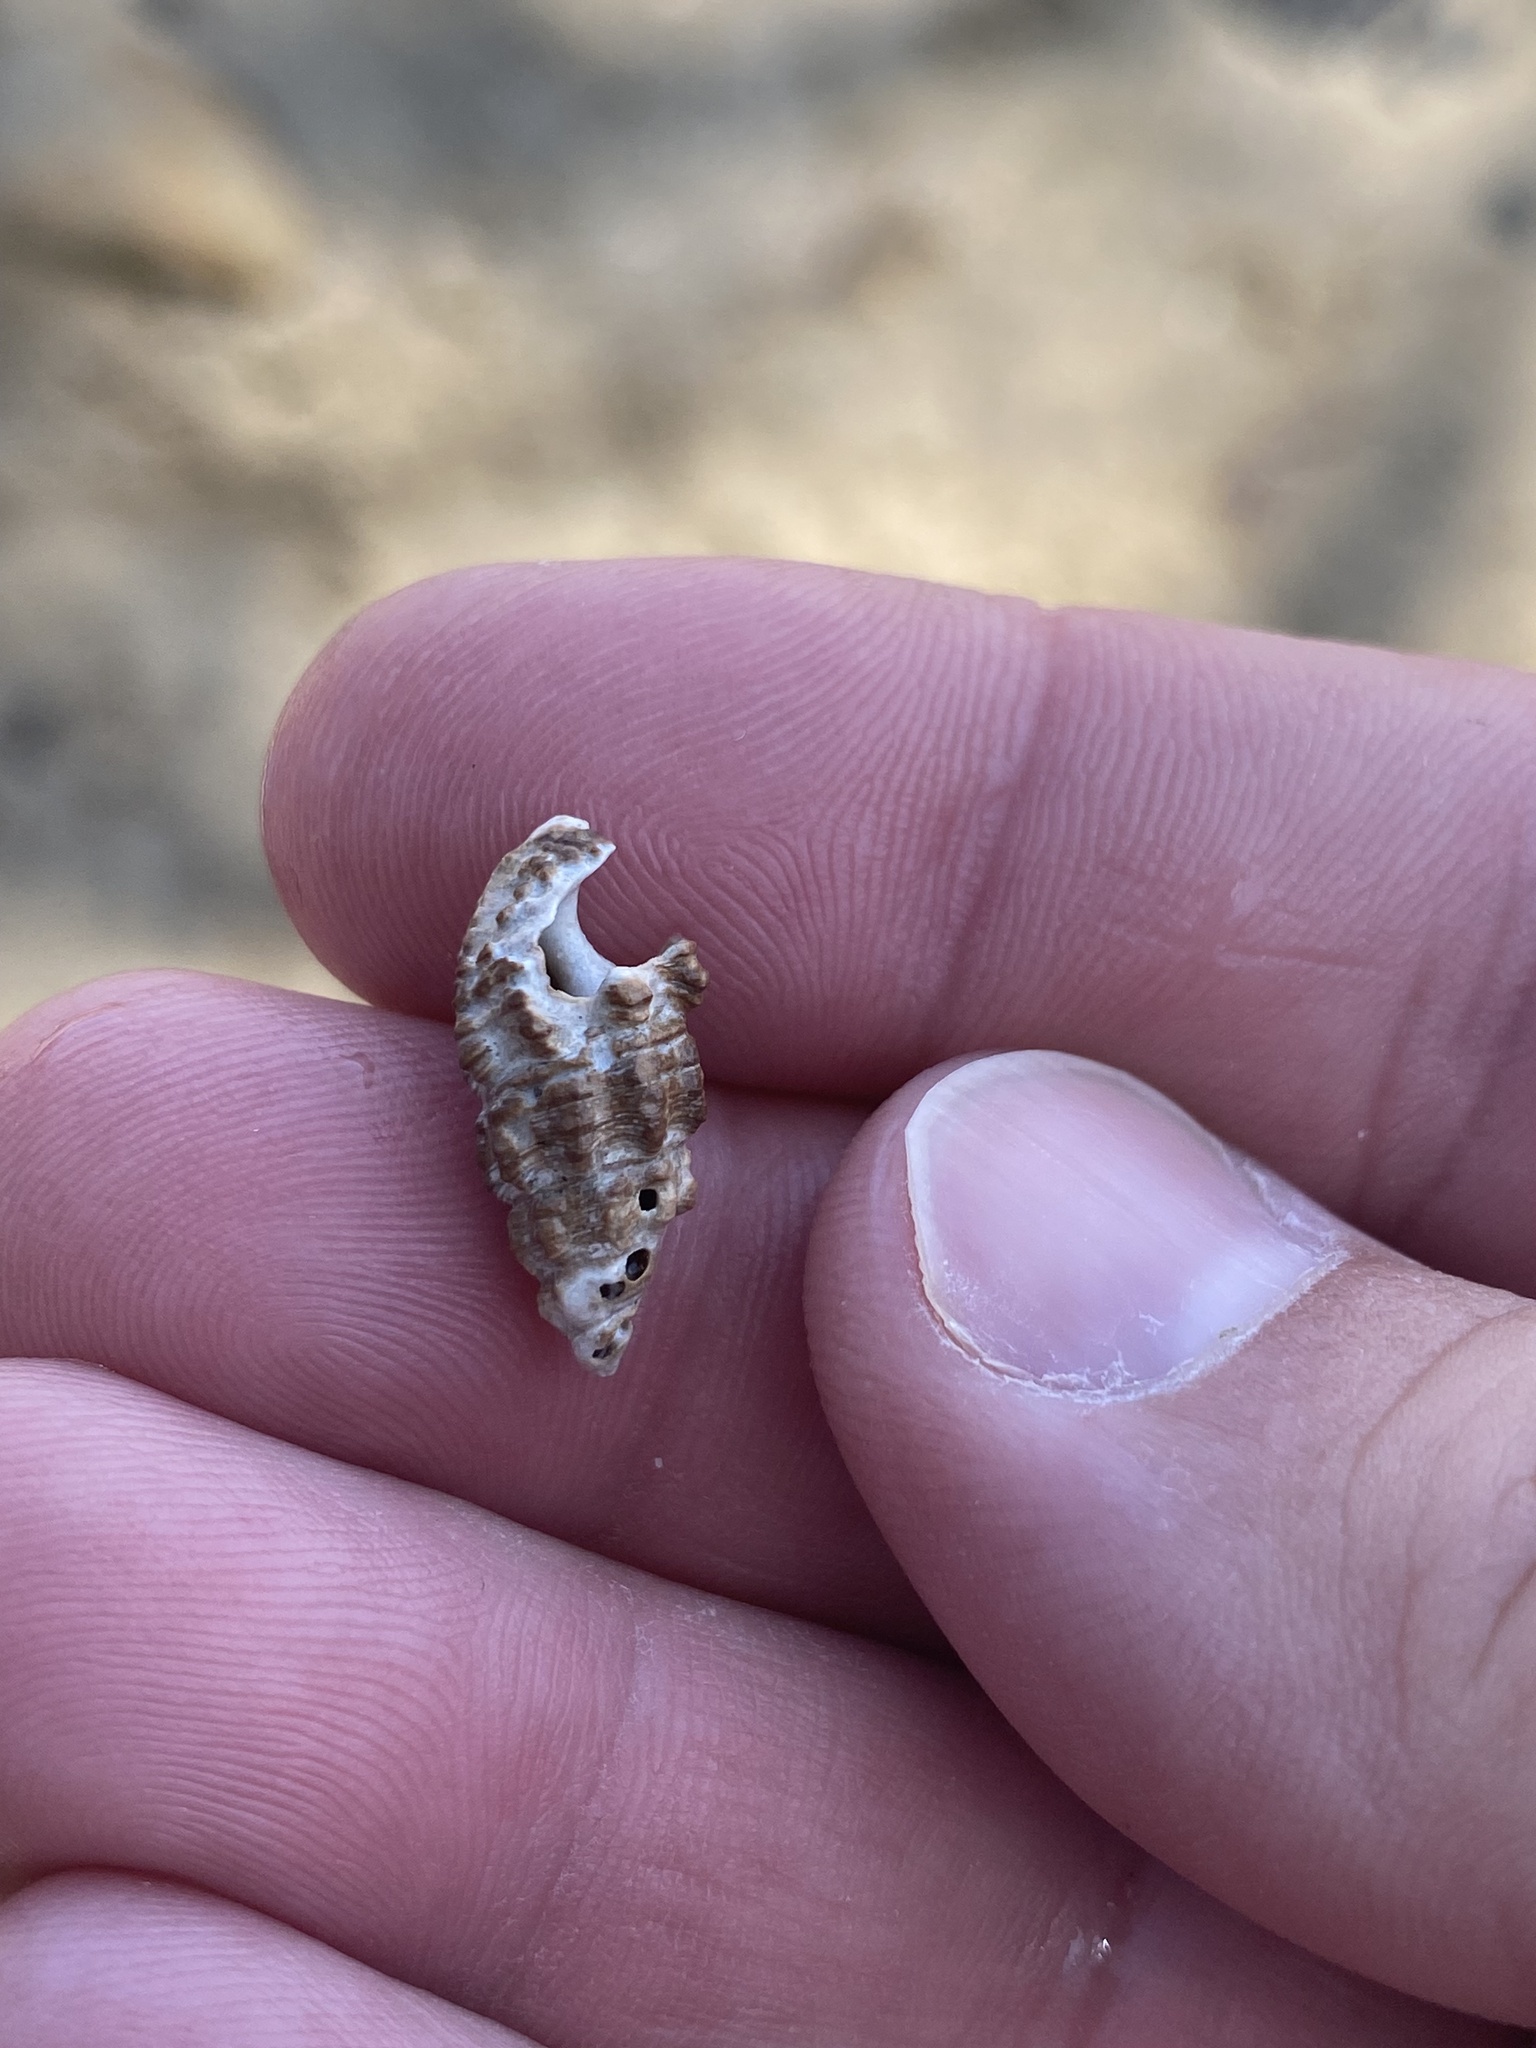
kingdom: Animalia
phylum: Mollusca
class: Gastropoda
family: Batillariidae
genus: Batillaria
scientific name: Batillaria australis
